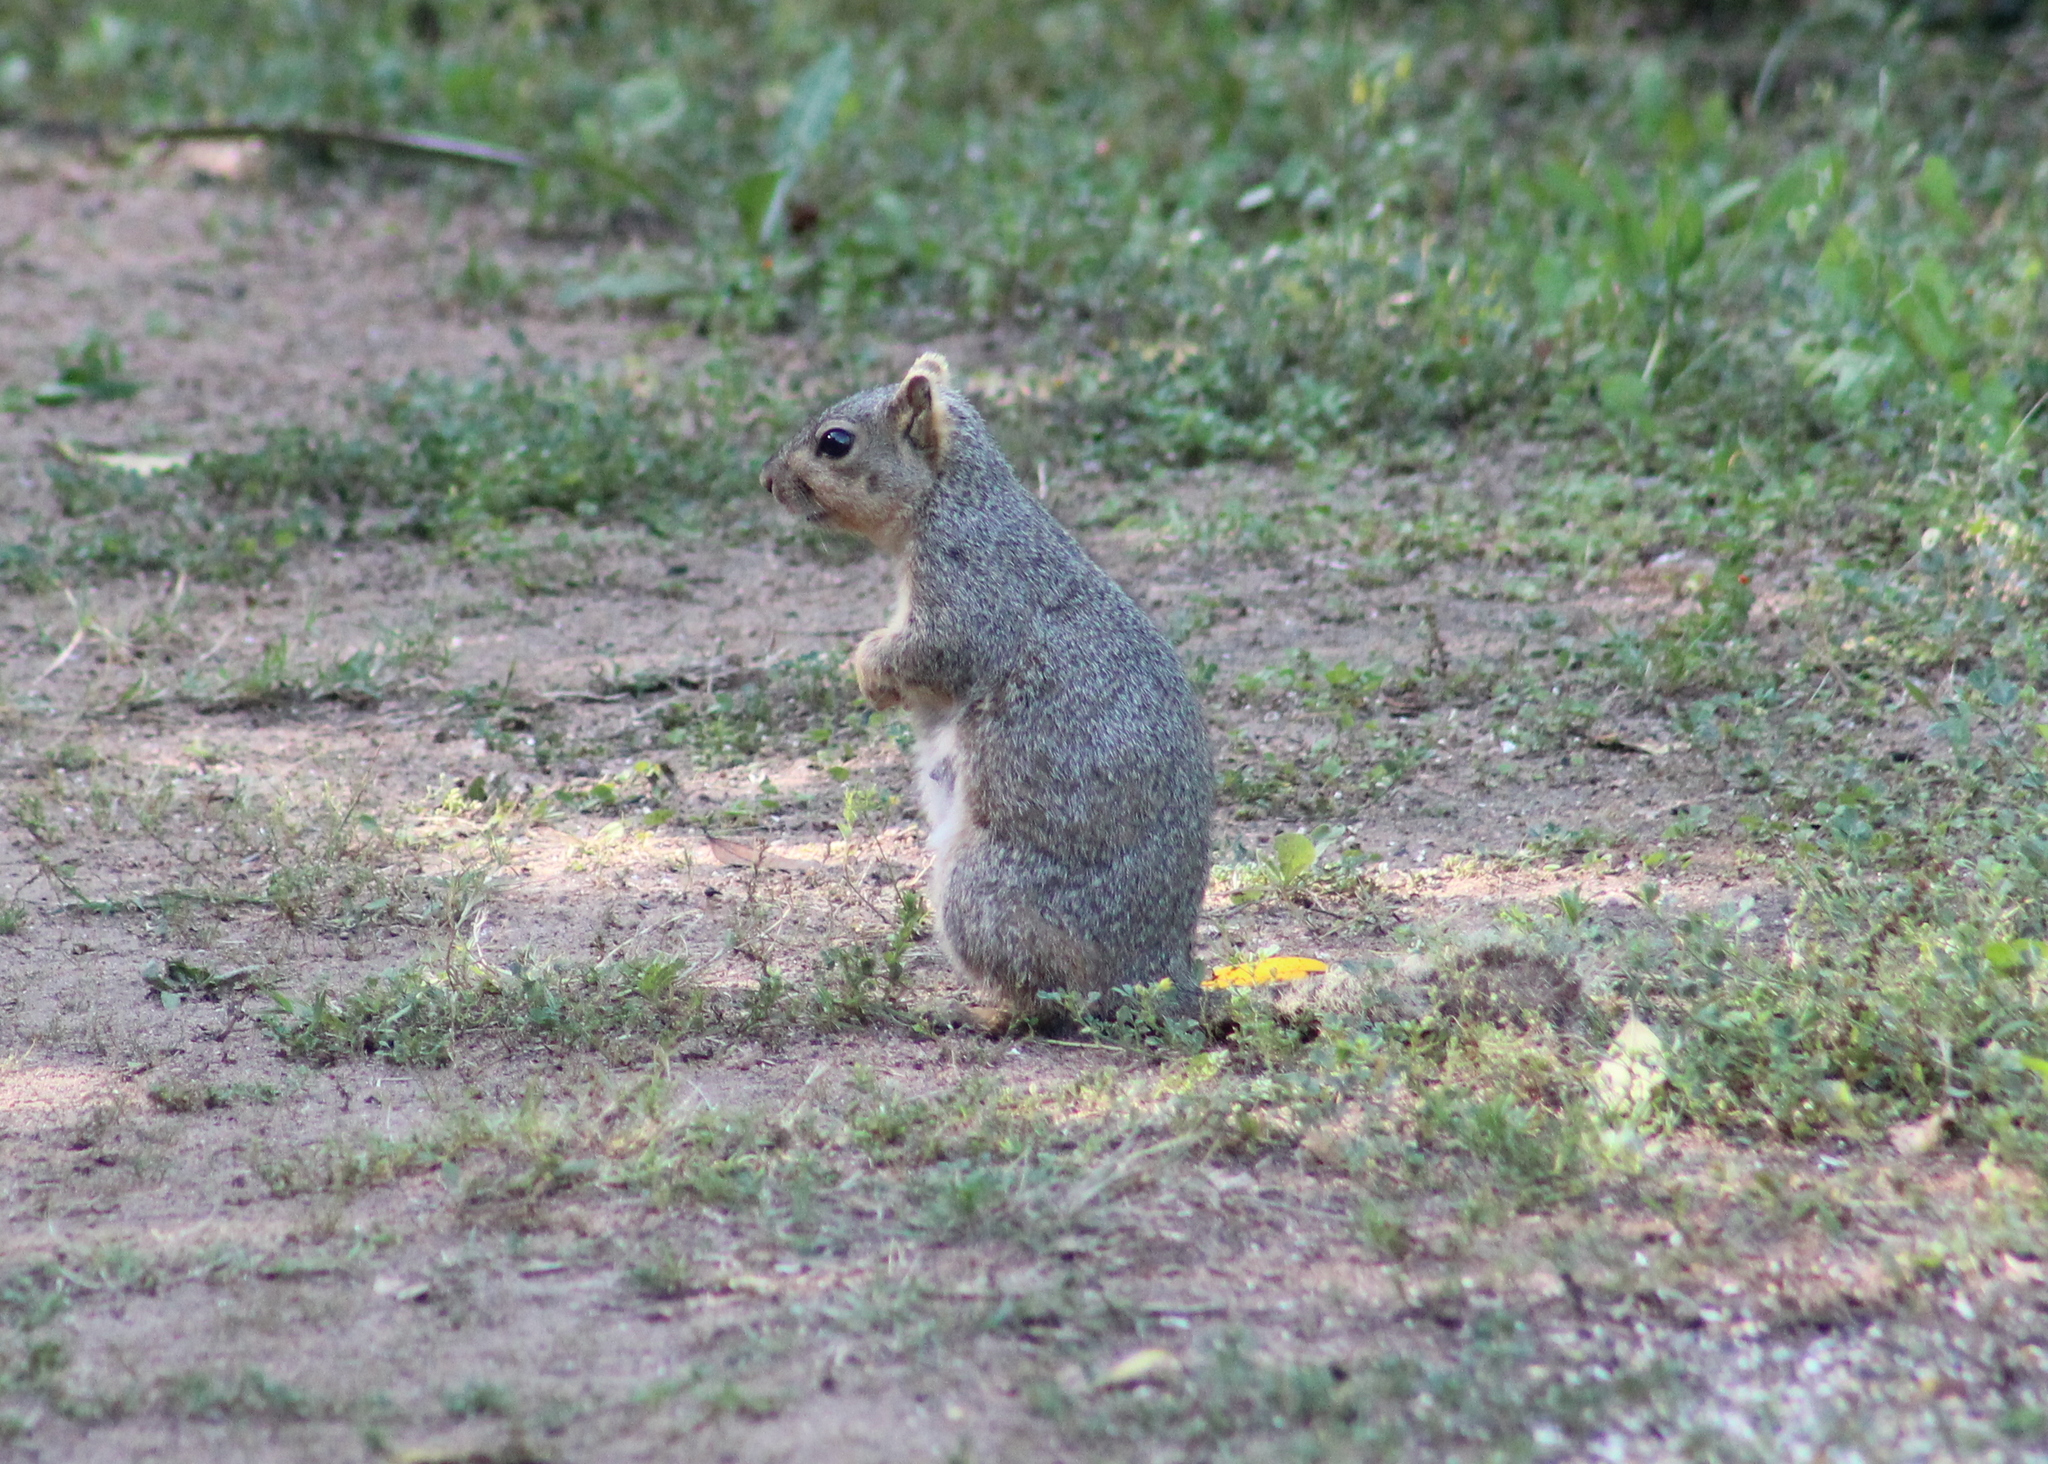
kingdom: Animalia
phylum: Chordata
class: Mammalia
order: Rodentia
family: Sciuridae
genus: Sciurus
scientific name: Sciurus niger
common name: Fox squirrel
